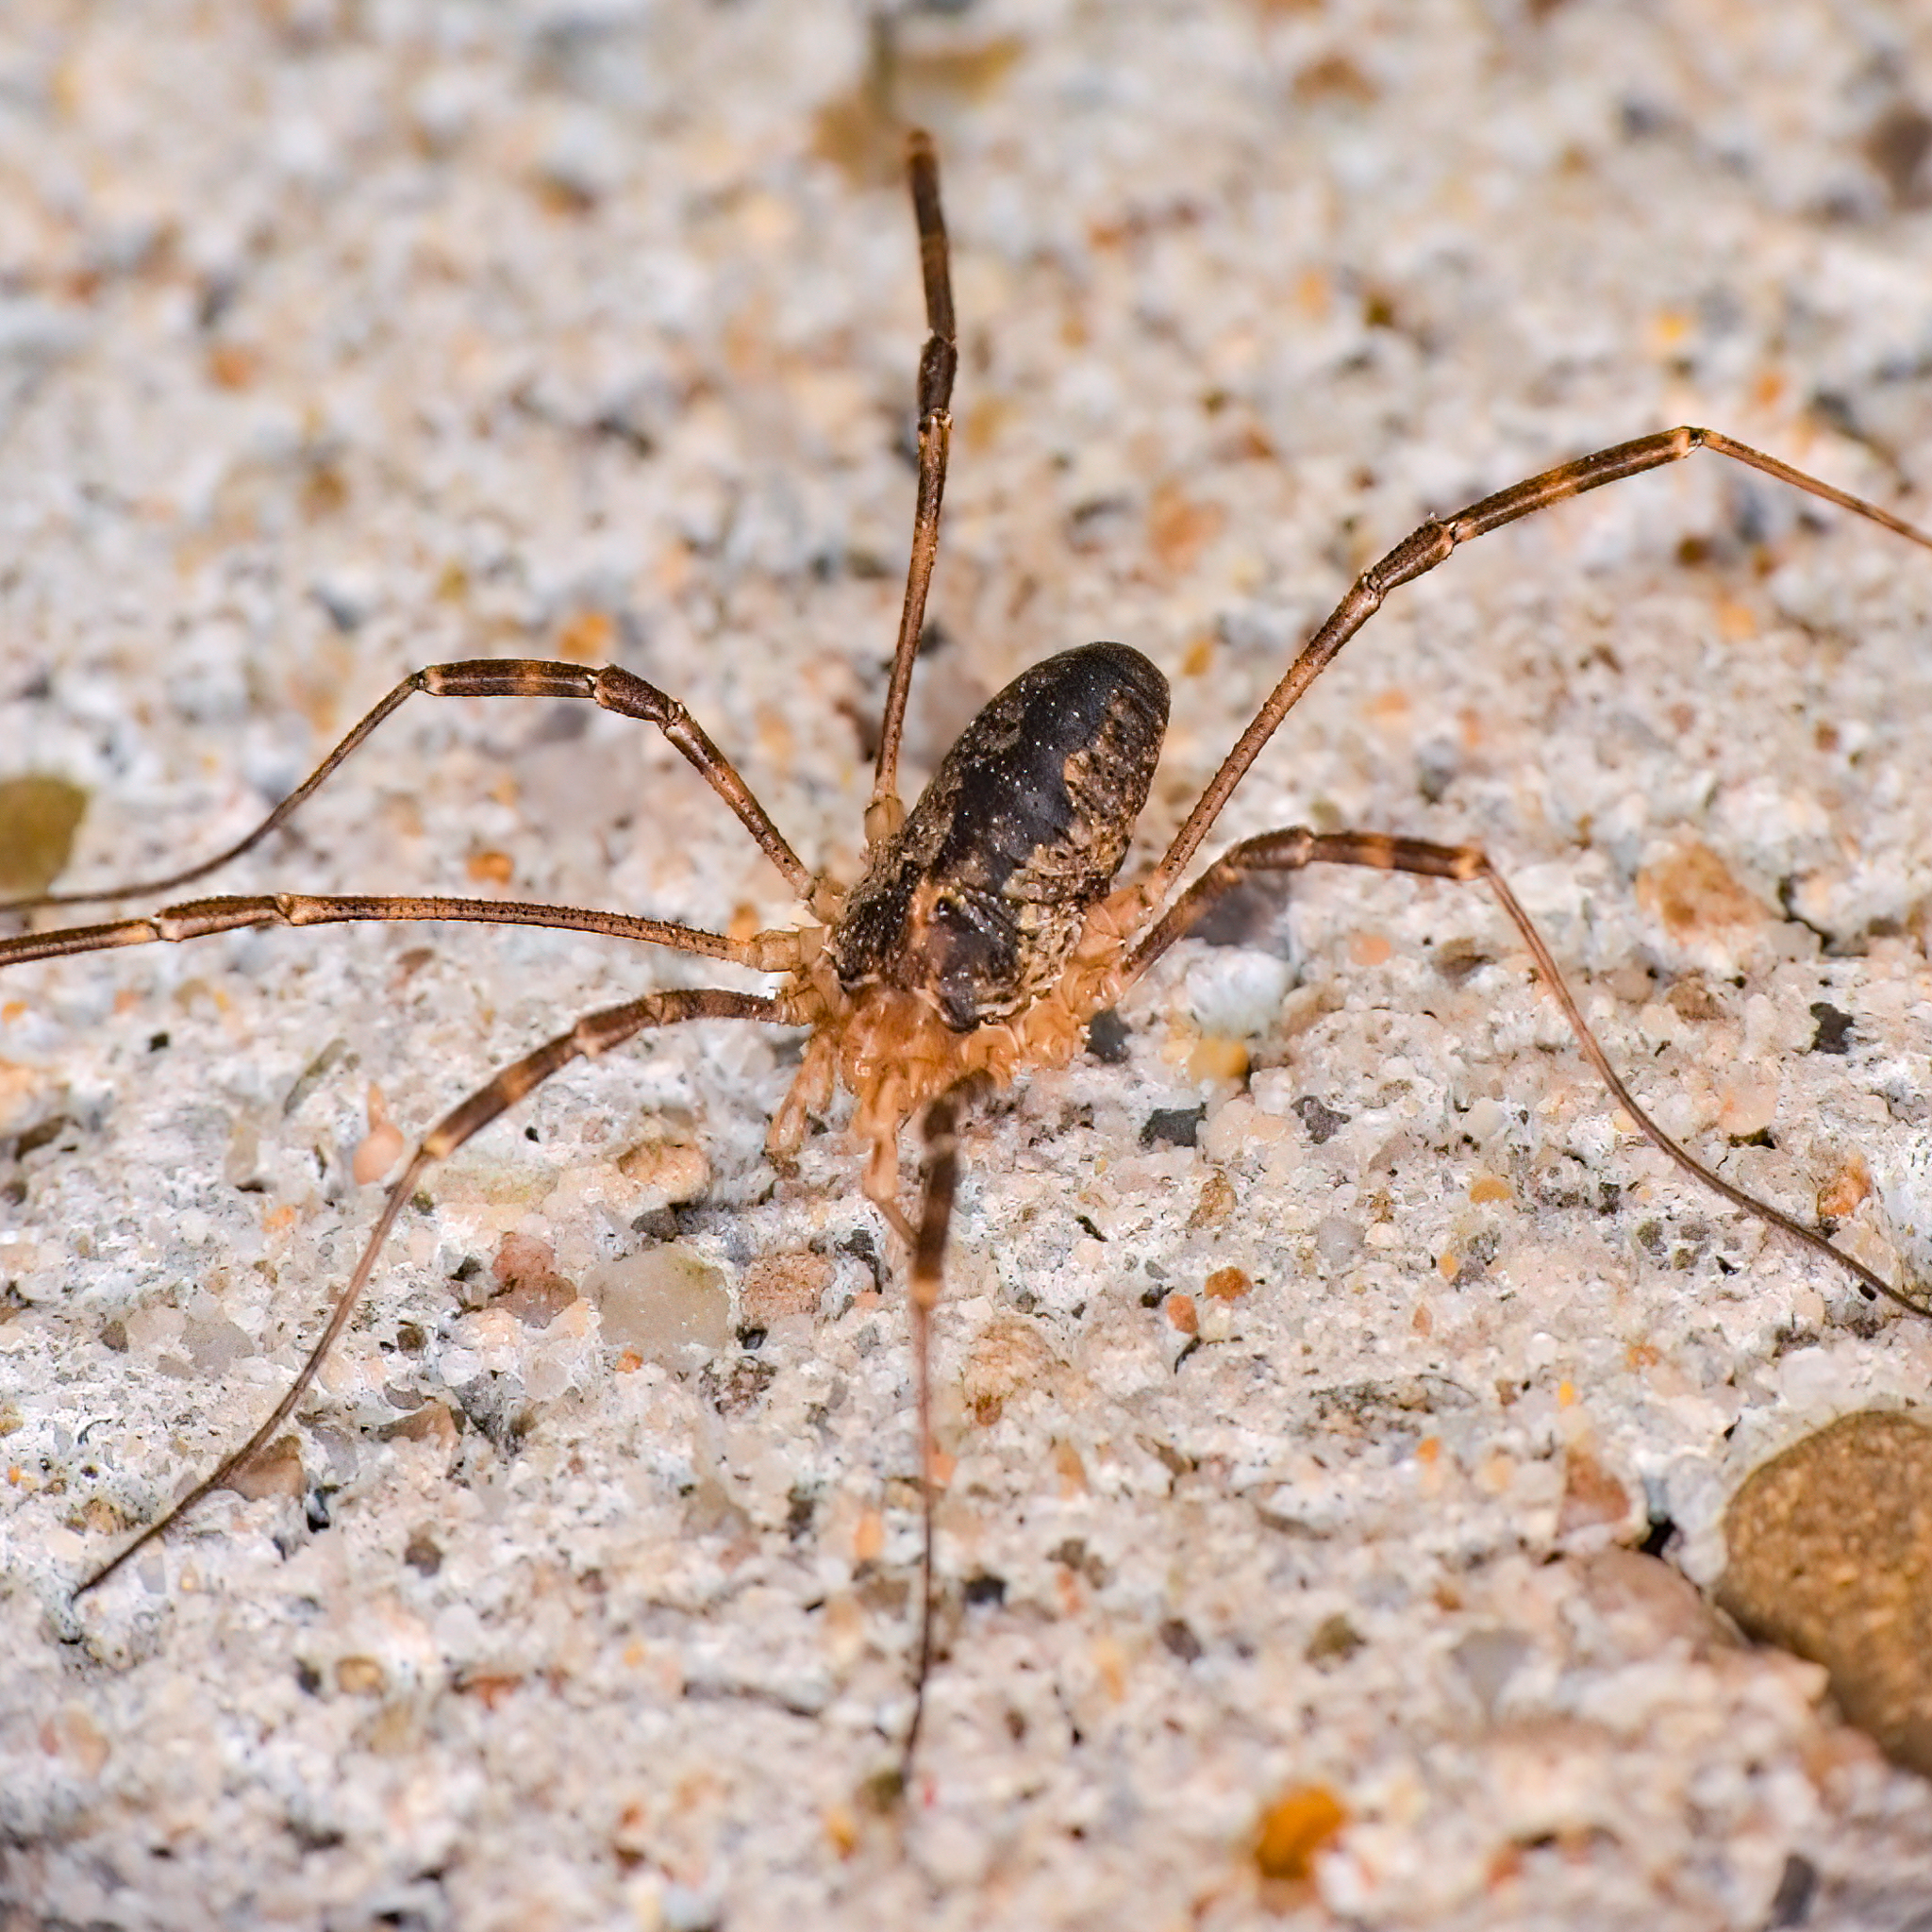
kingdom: Animalia
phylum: Arthropoda
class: Arachnida
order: Opiliones
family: Phalangiidae
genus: Odiellus
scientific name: Odiellus pictus
